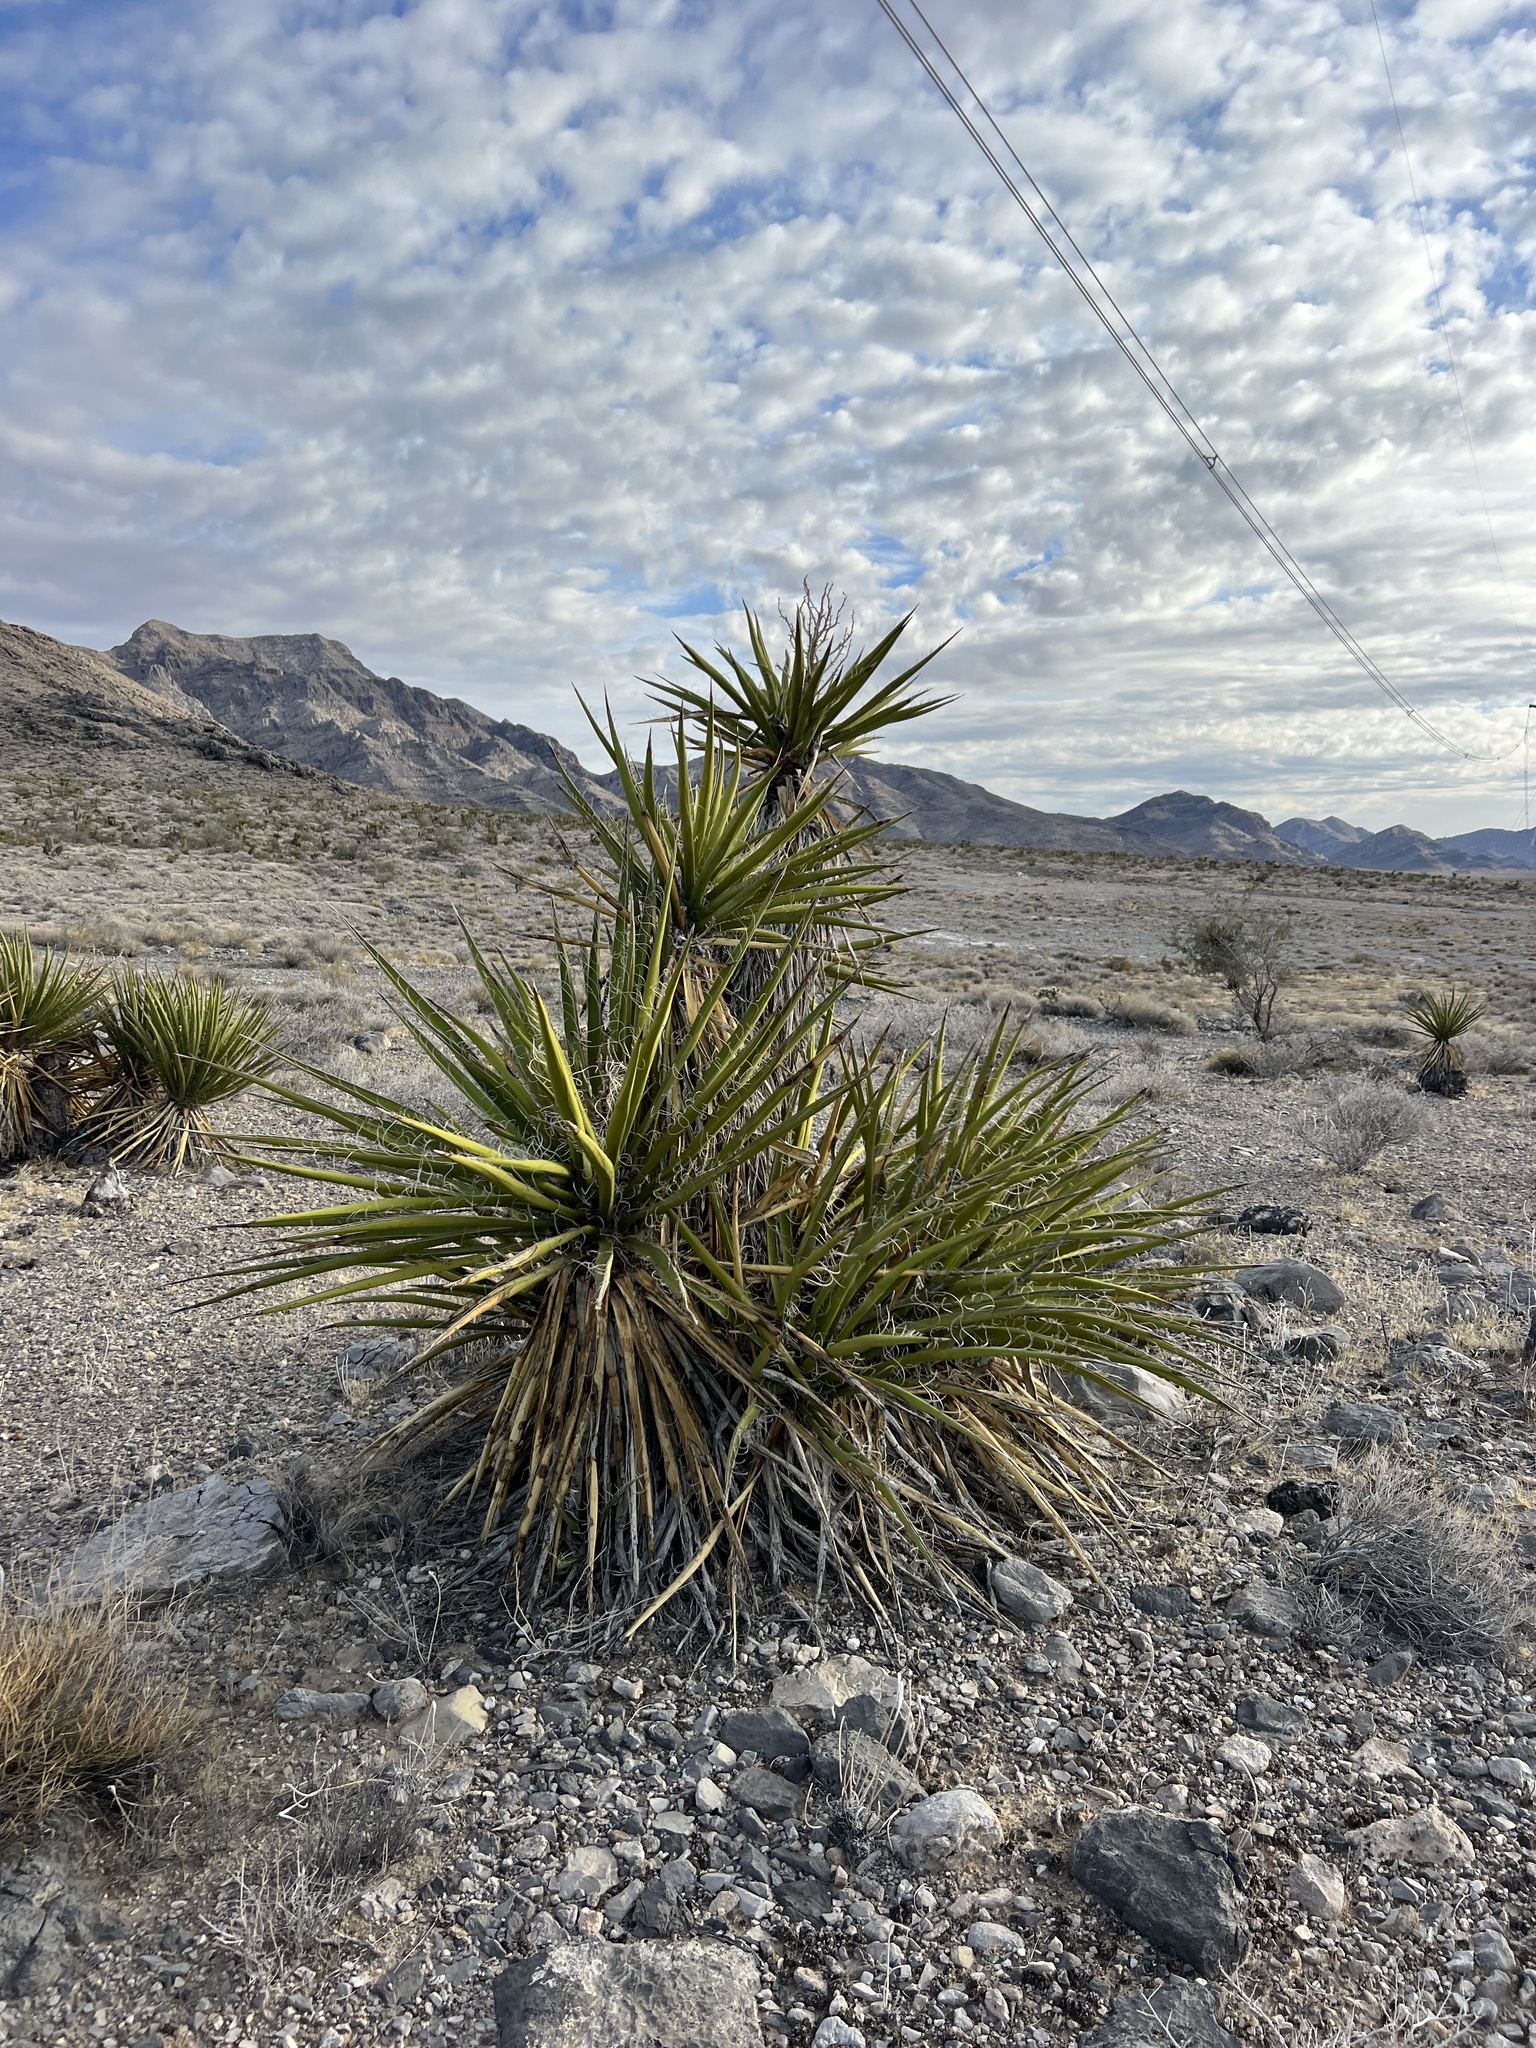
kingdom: Plantae
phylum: Tracheophyta
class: Liliopsida
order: Asparagales
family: Asparagaceae
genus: Yucca
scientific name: Yucca schidigera
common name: Mojave yucca
